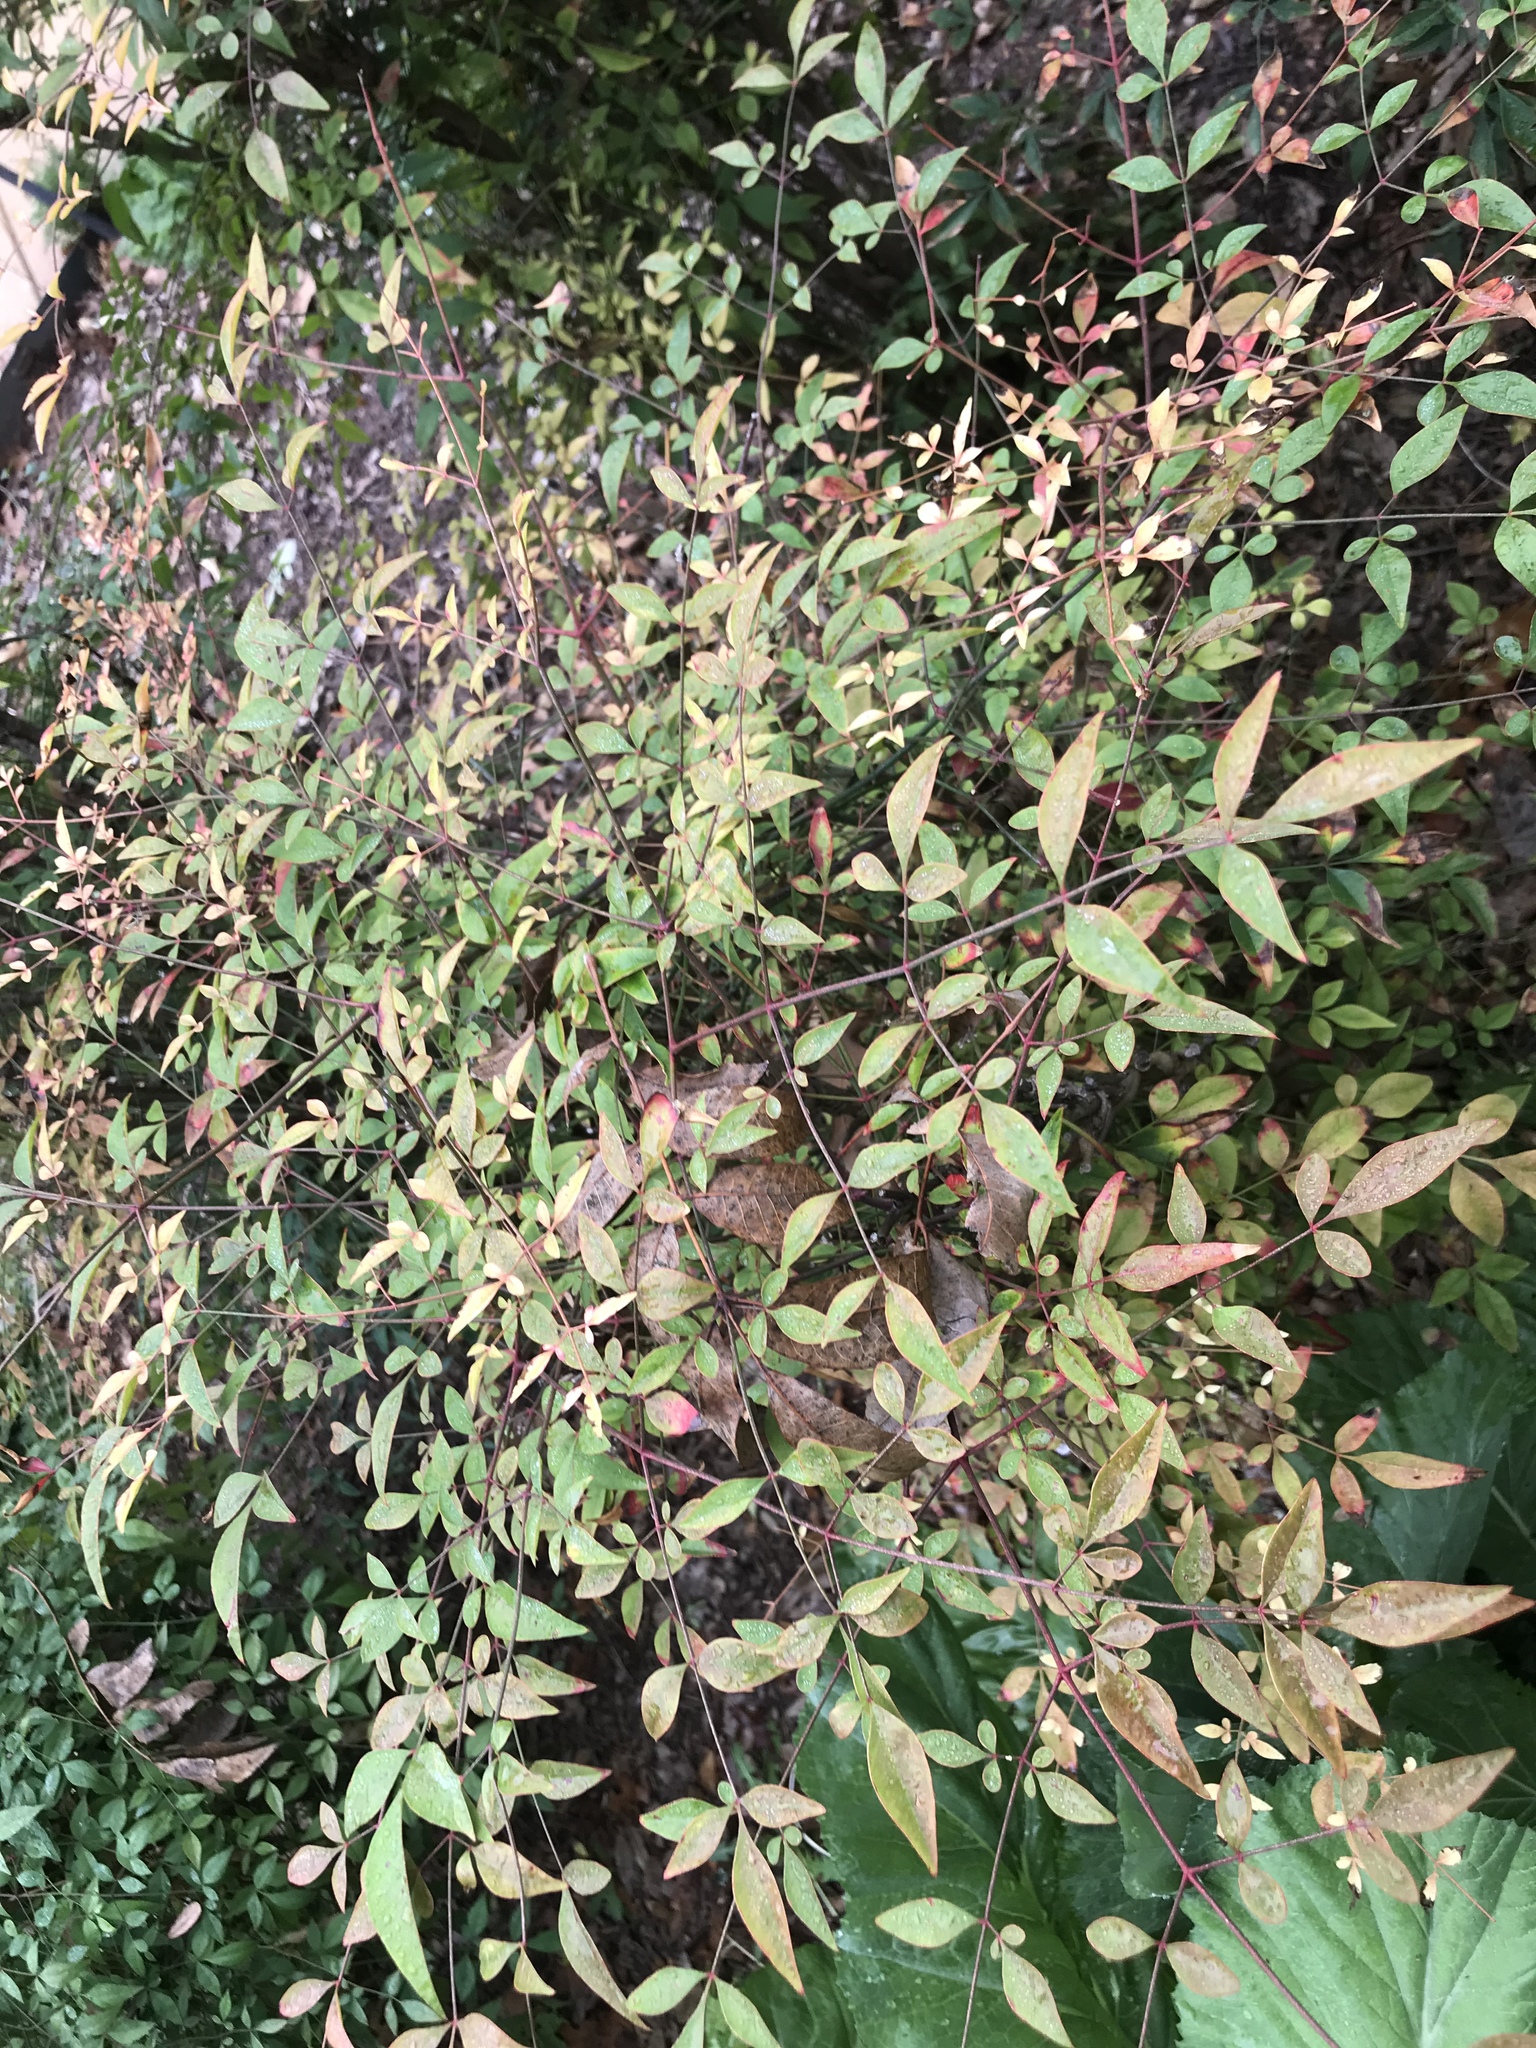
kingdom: Plantae
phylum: Tracheophyta
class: Magnoliopsida
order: Ranunculales
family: Berberidaceae
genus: Nandina
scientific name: Nandina domestica
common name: Sacred bamboo
